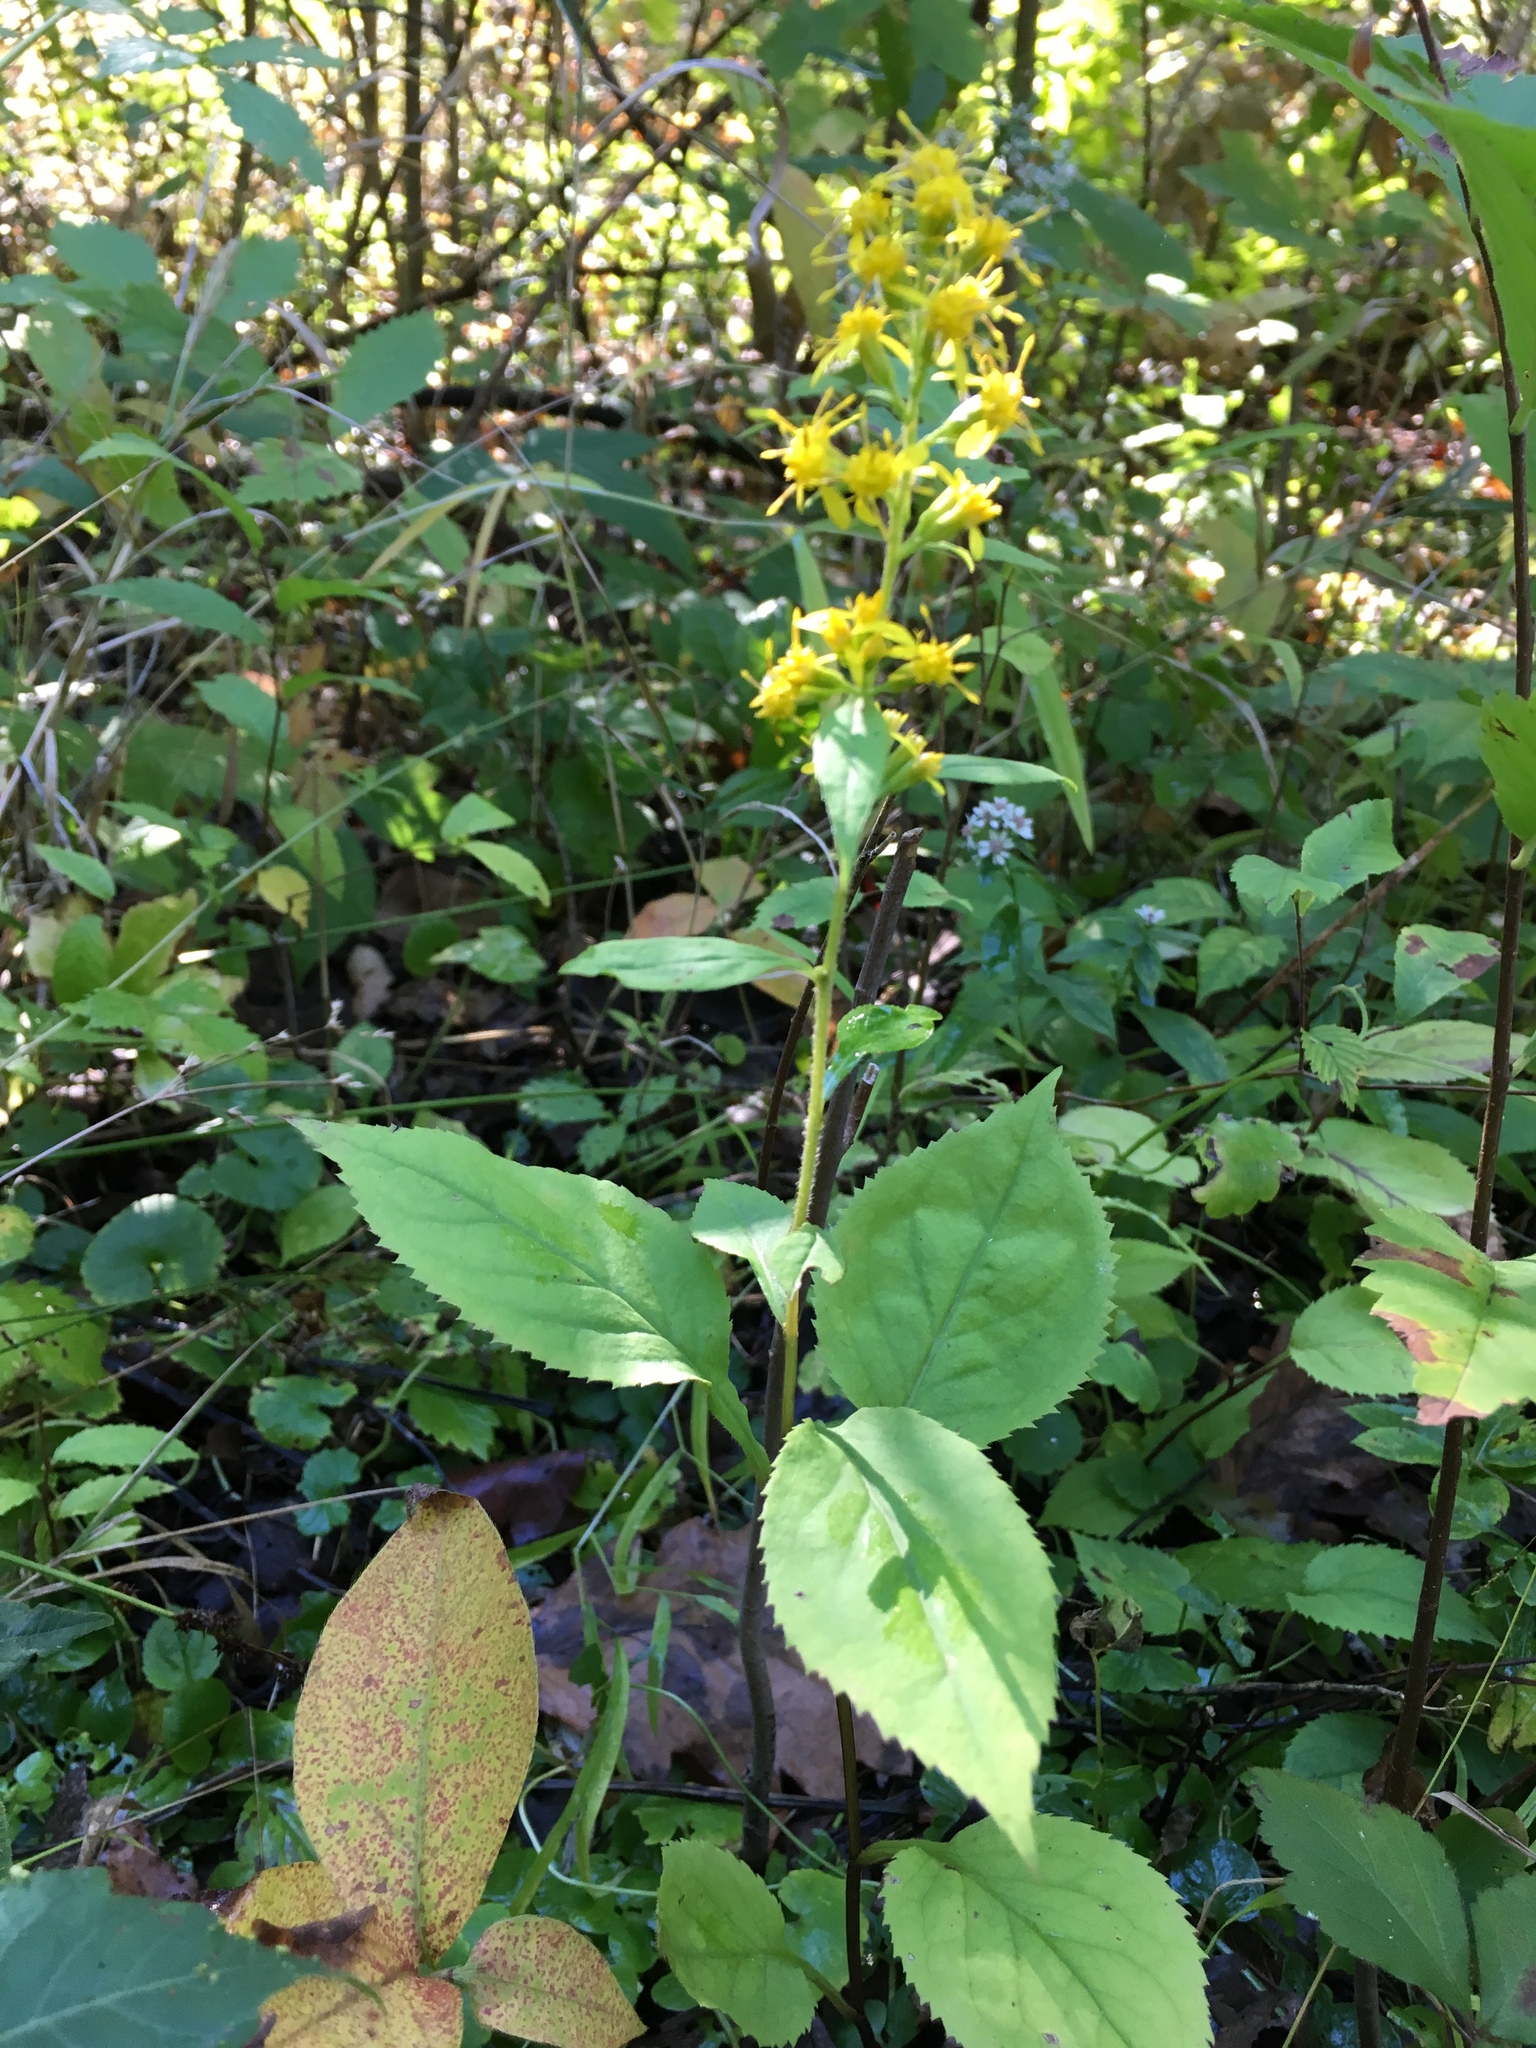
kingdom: Plantae
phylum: Tracheophyta
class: Magnoliopsida
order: Asterales
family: Asteraceae
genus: Solidago
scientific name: Solidago flexicaulis
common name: Zig-zag goldenrod
